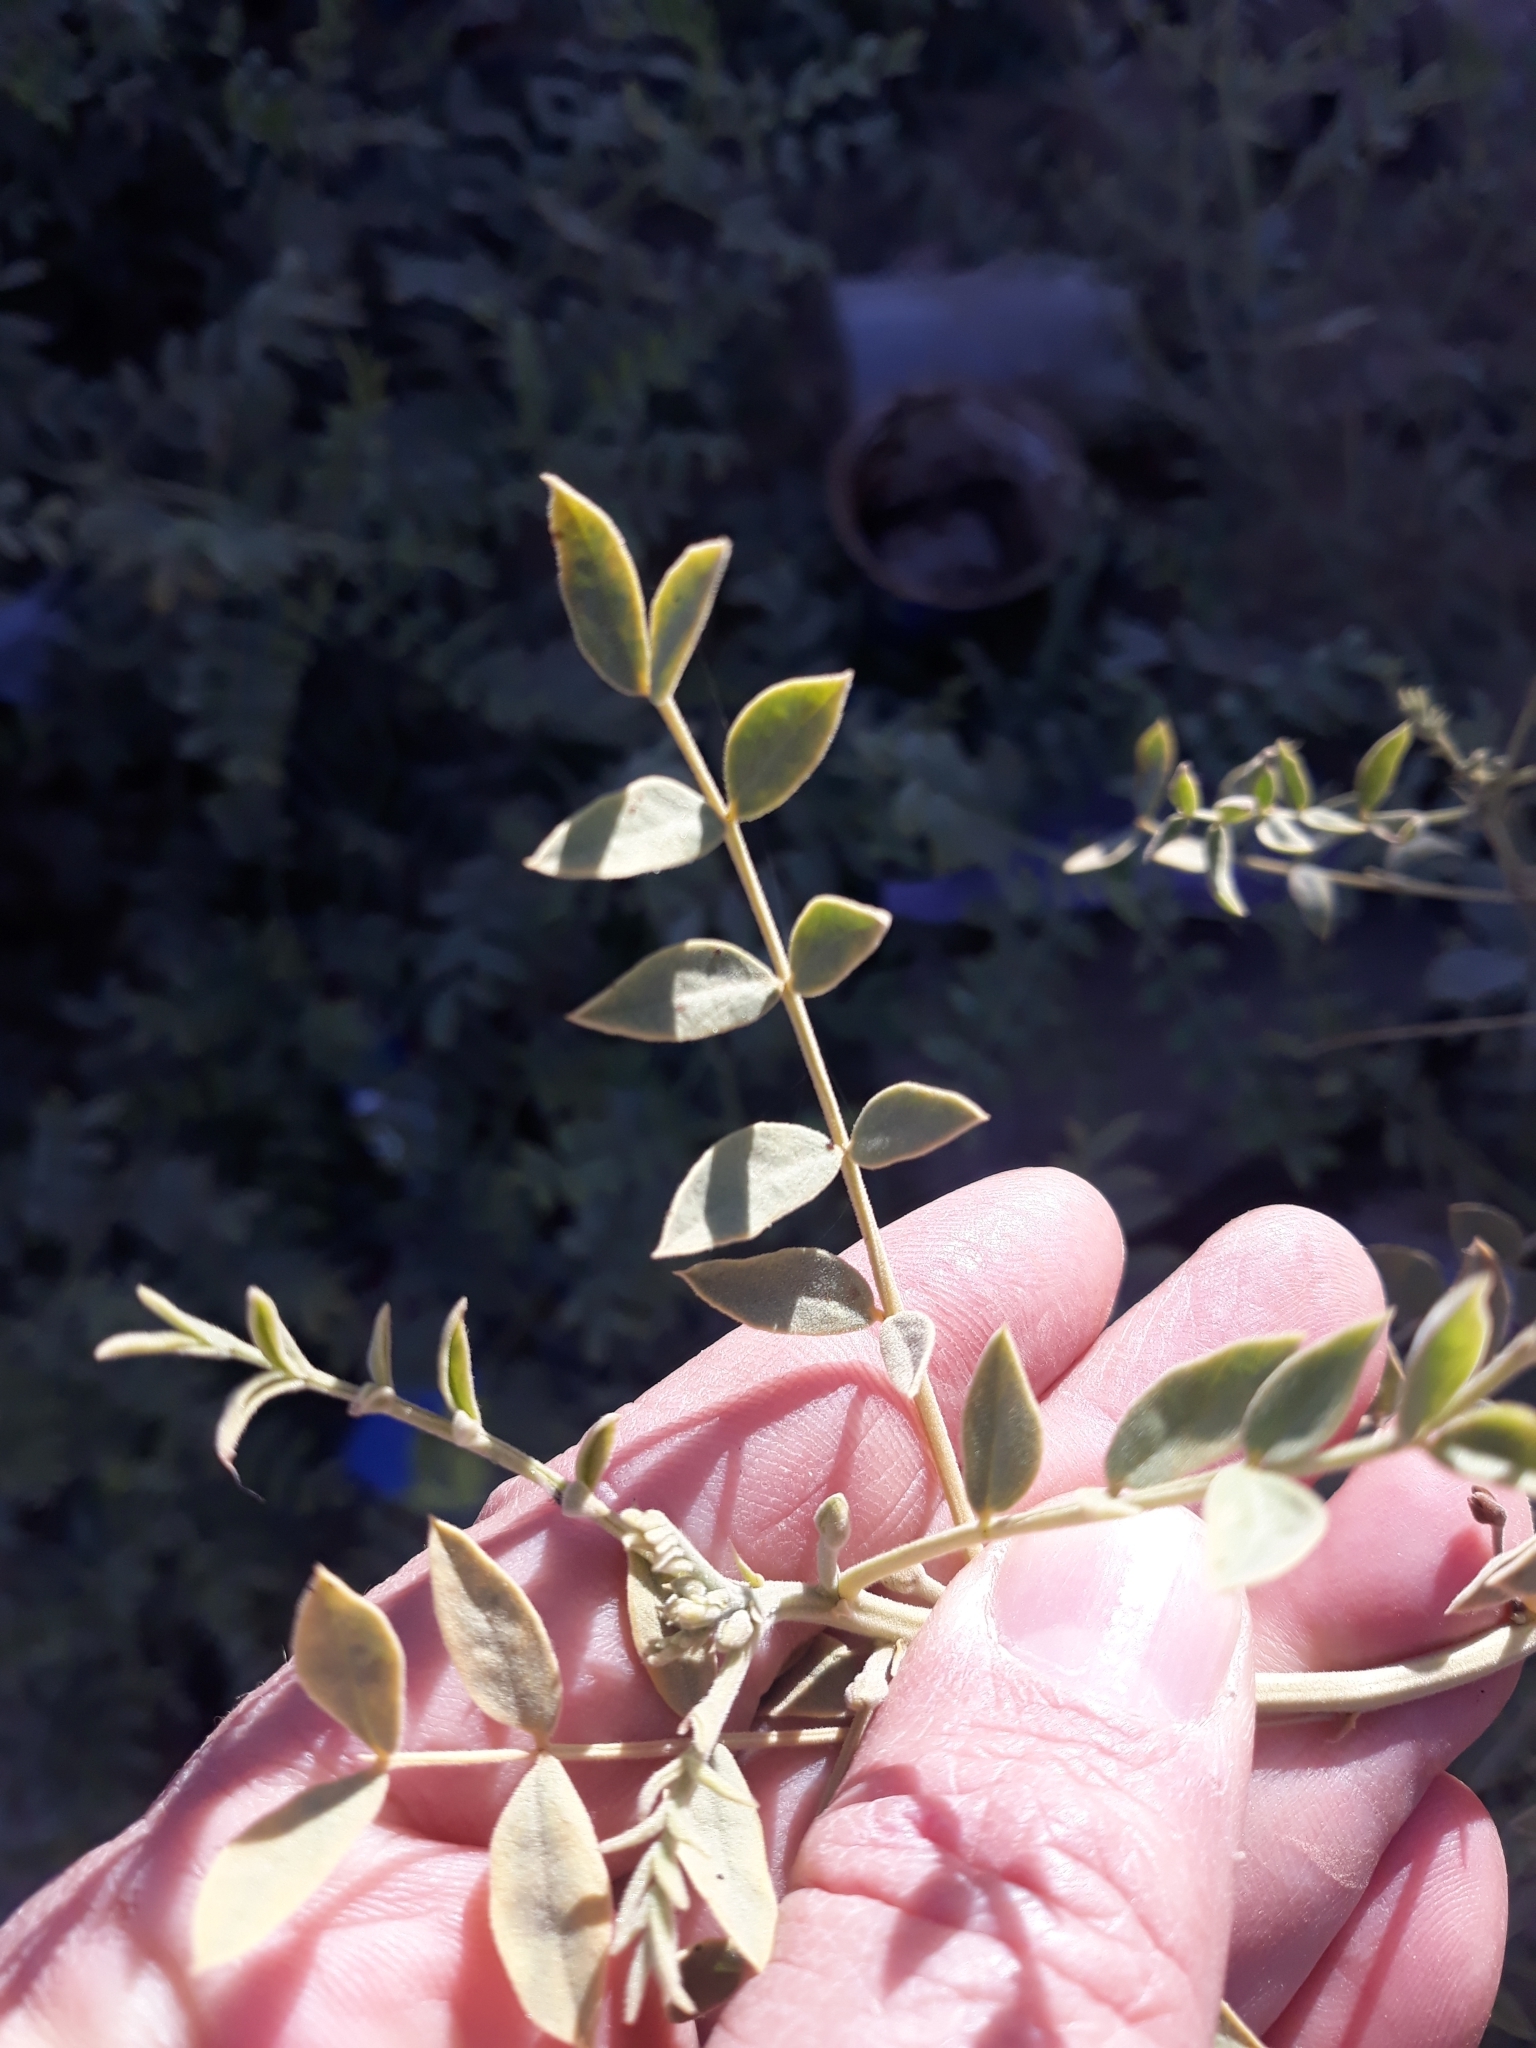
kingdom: Plantae
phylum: Tracheophyta
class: Magnoliopsida
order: Fabales
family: Fabaceae
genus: Senna
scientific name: Senna alexandrina
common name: True senna
